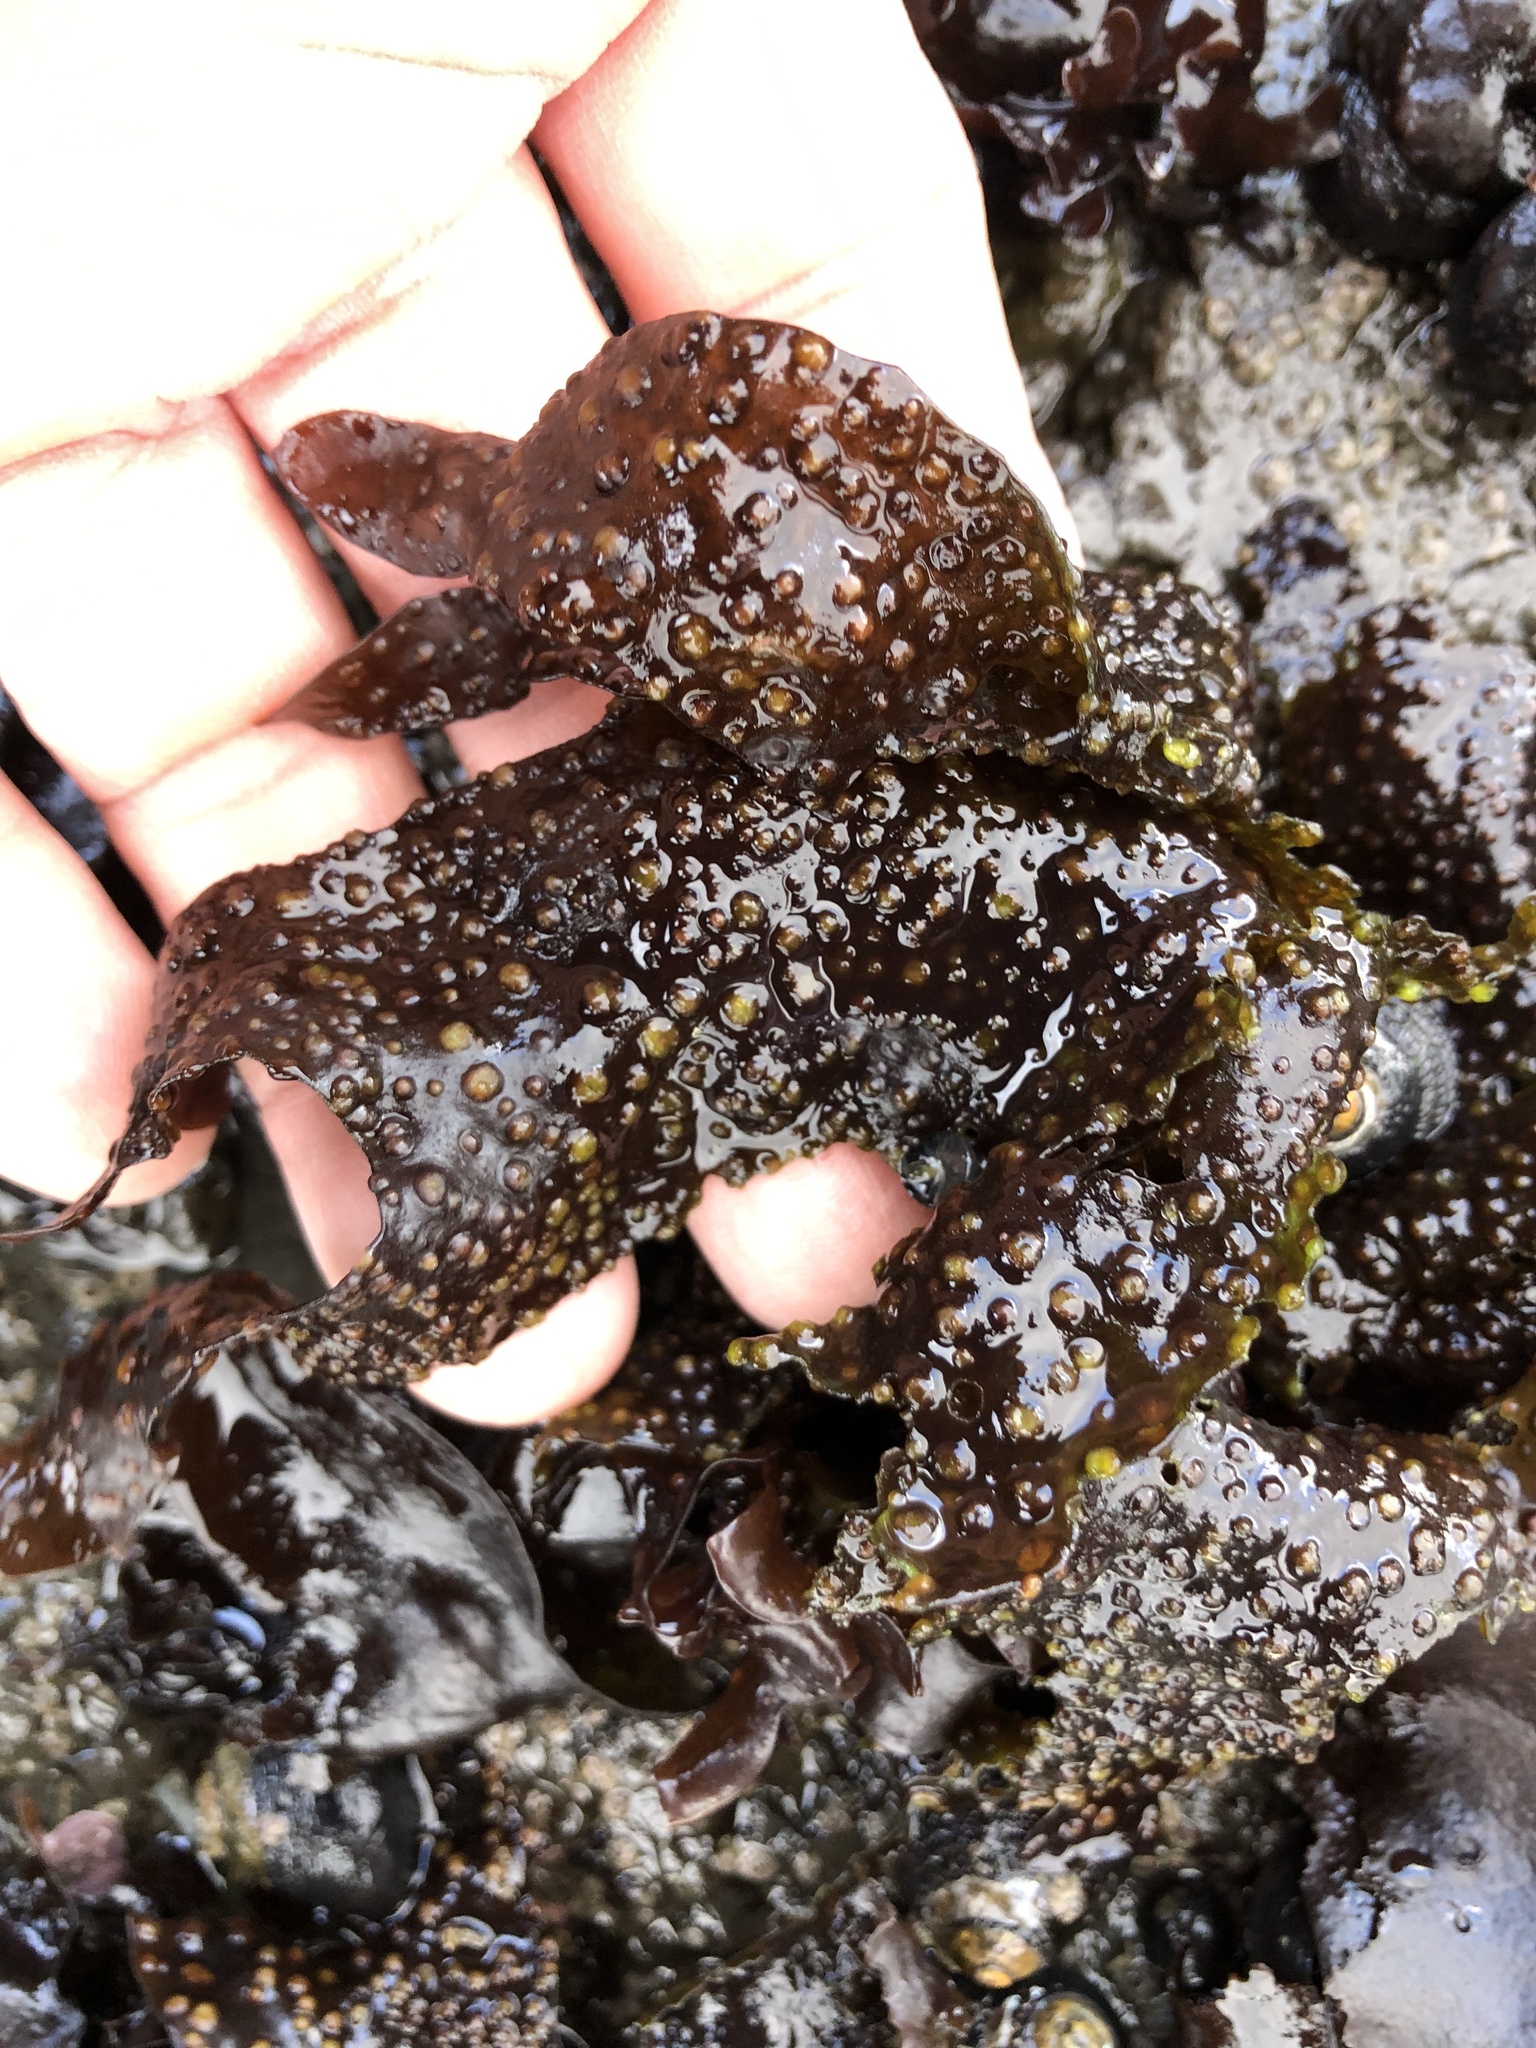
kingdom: Plantae
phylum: Rhodophyta
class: Florideophyceae
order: Gigartinales
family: Gigartinaceae
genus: Mazzaella
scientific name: Mazzaella oregona
